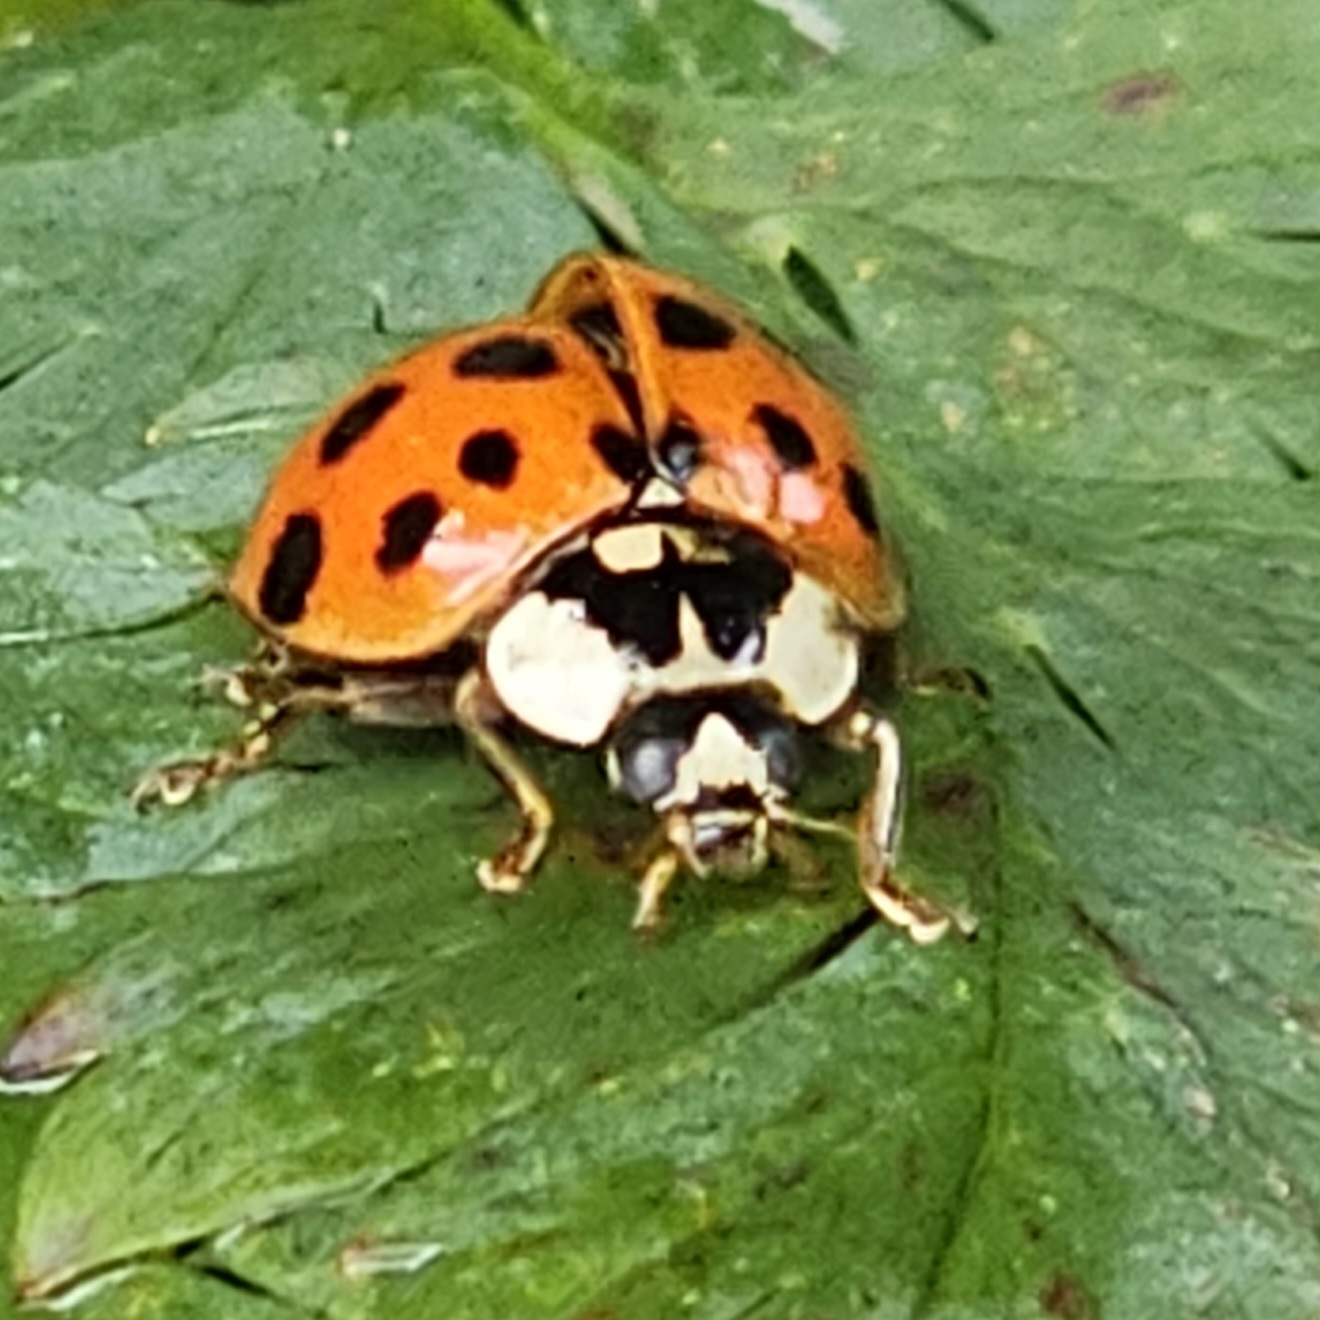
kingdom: Animalia
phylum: Arthropoda
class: Insecta
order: Coleoptera
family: Coccinellidae
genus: Harmonia
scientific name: Harmonia axyridis
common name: Harlequin ladybird
